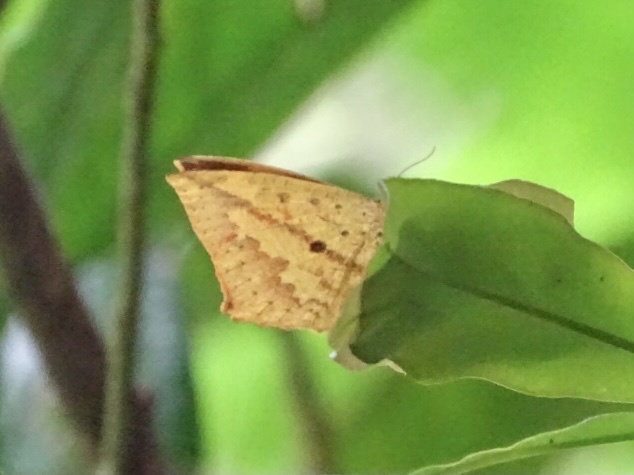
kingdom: Animalia
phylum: Arthropoda
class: Insecta
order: Lepidoptera
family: Callidulidae
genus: Tetragonus
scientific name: Tetragonus catamitus
